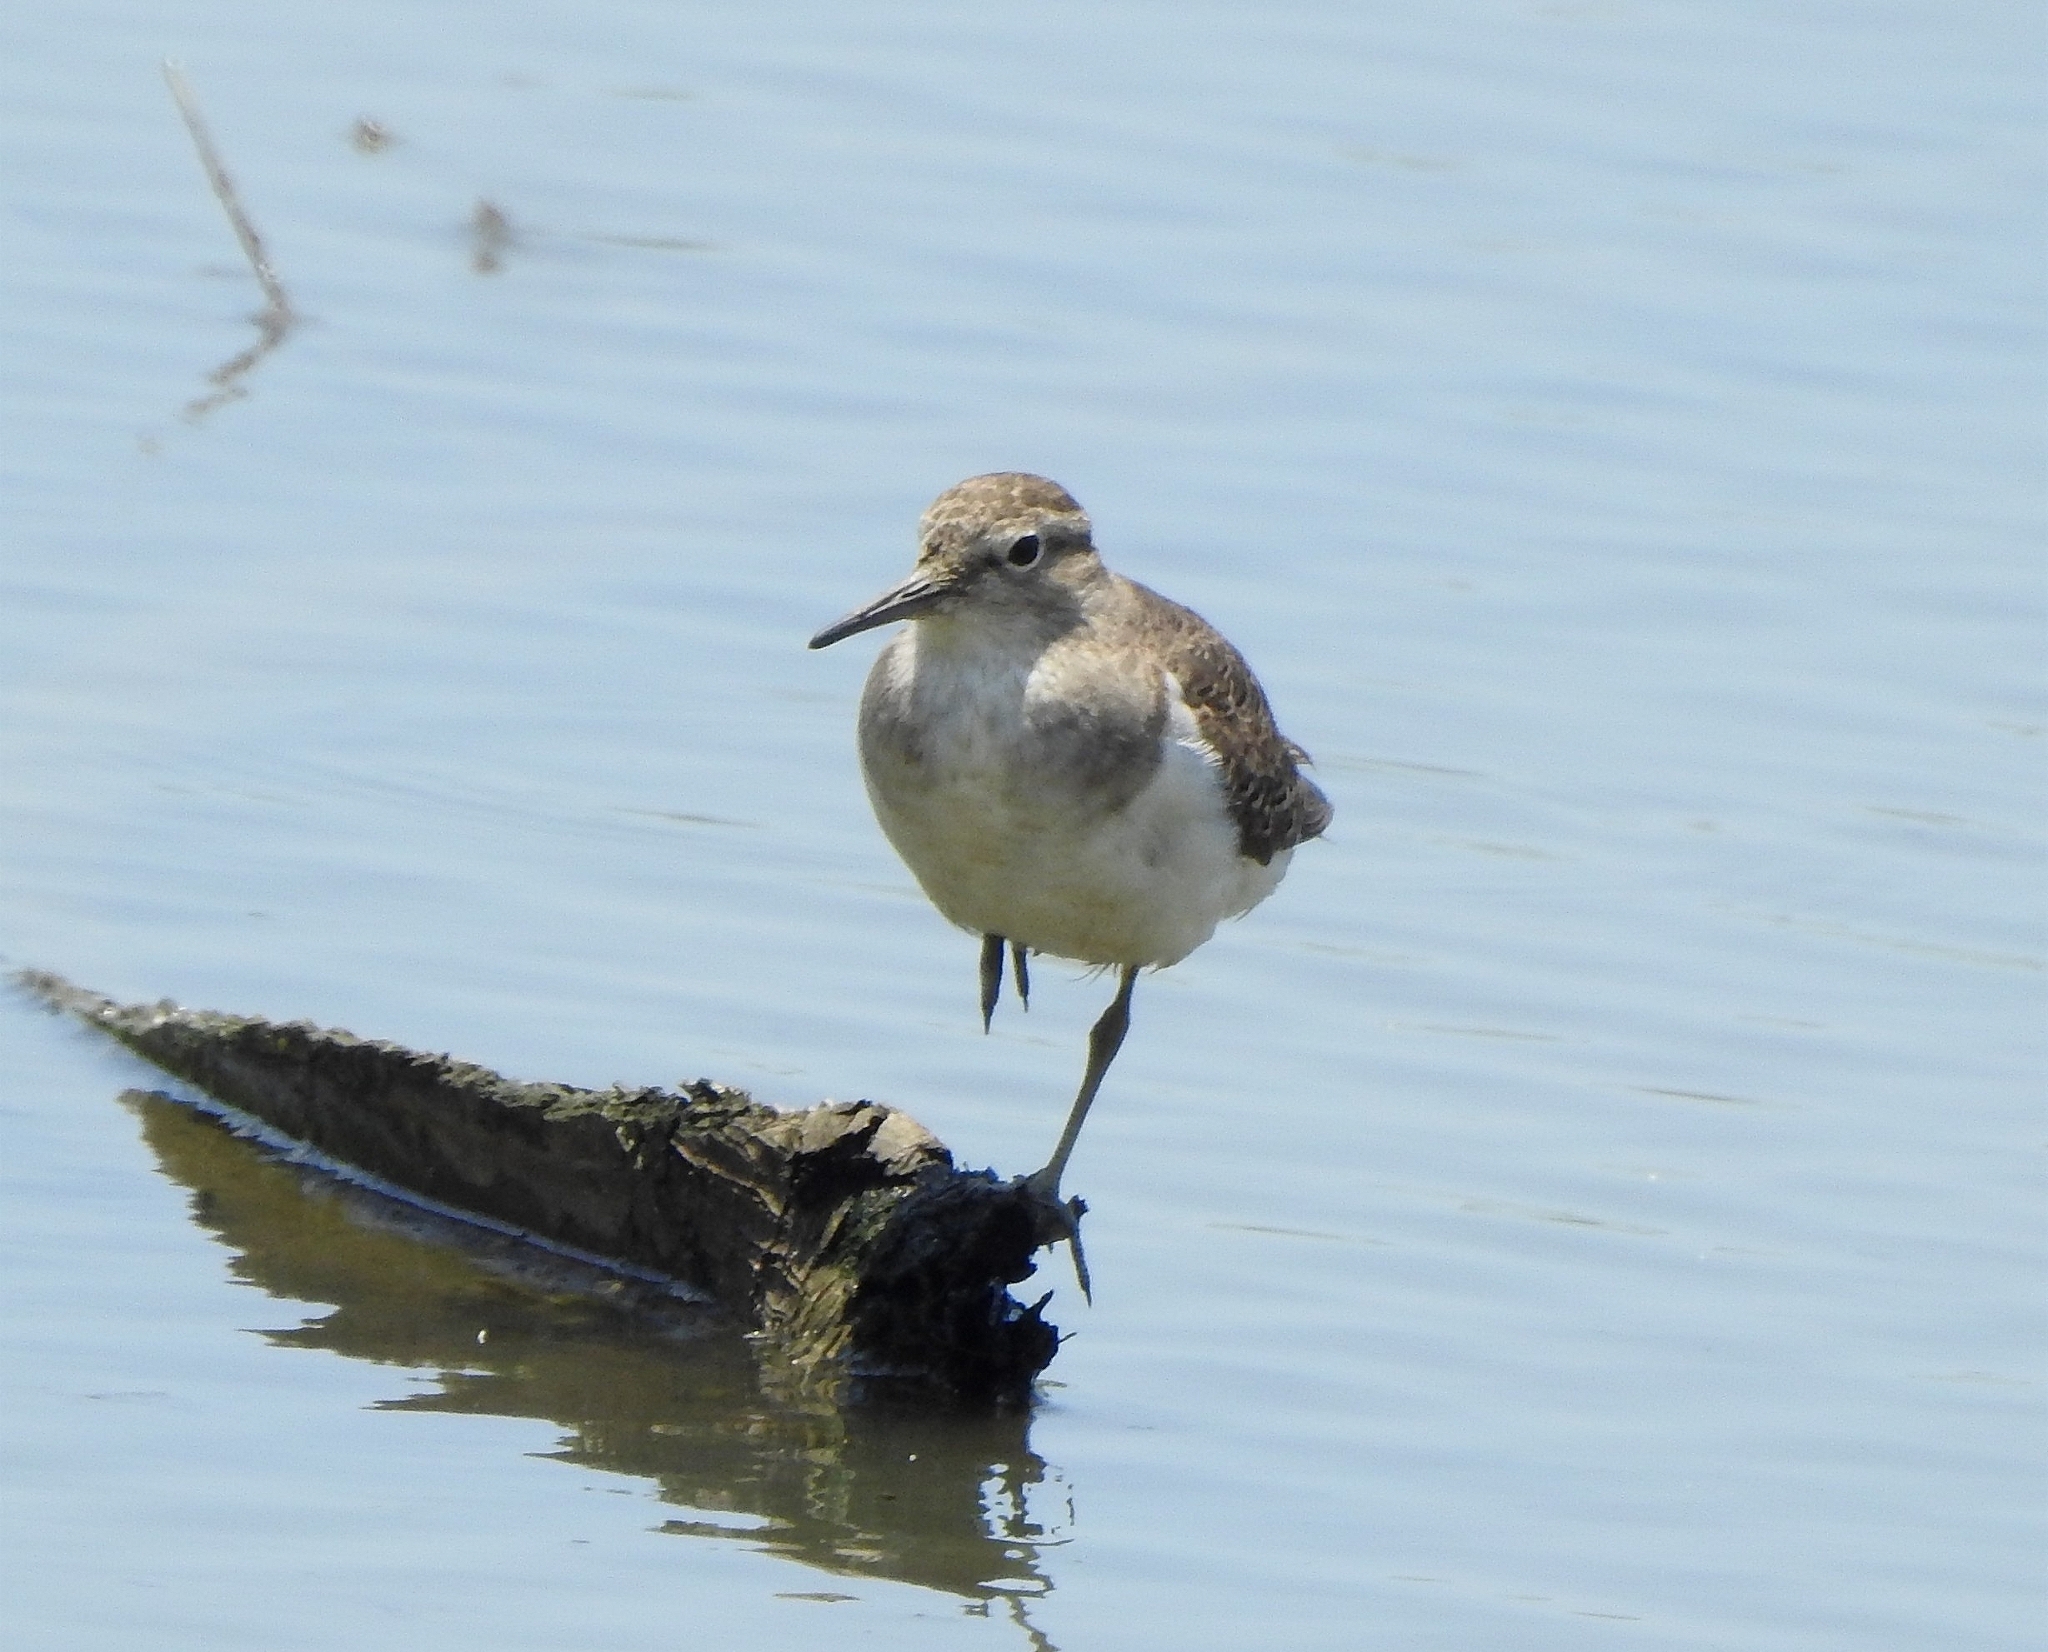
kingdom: Animalia
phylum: Chordata
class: Aves
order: Charadriiformes
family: Scolopacidae
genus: Actitis
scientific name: Actitis hypoleucos
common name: Common sandpiper
